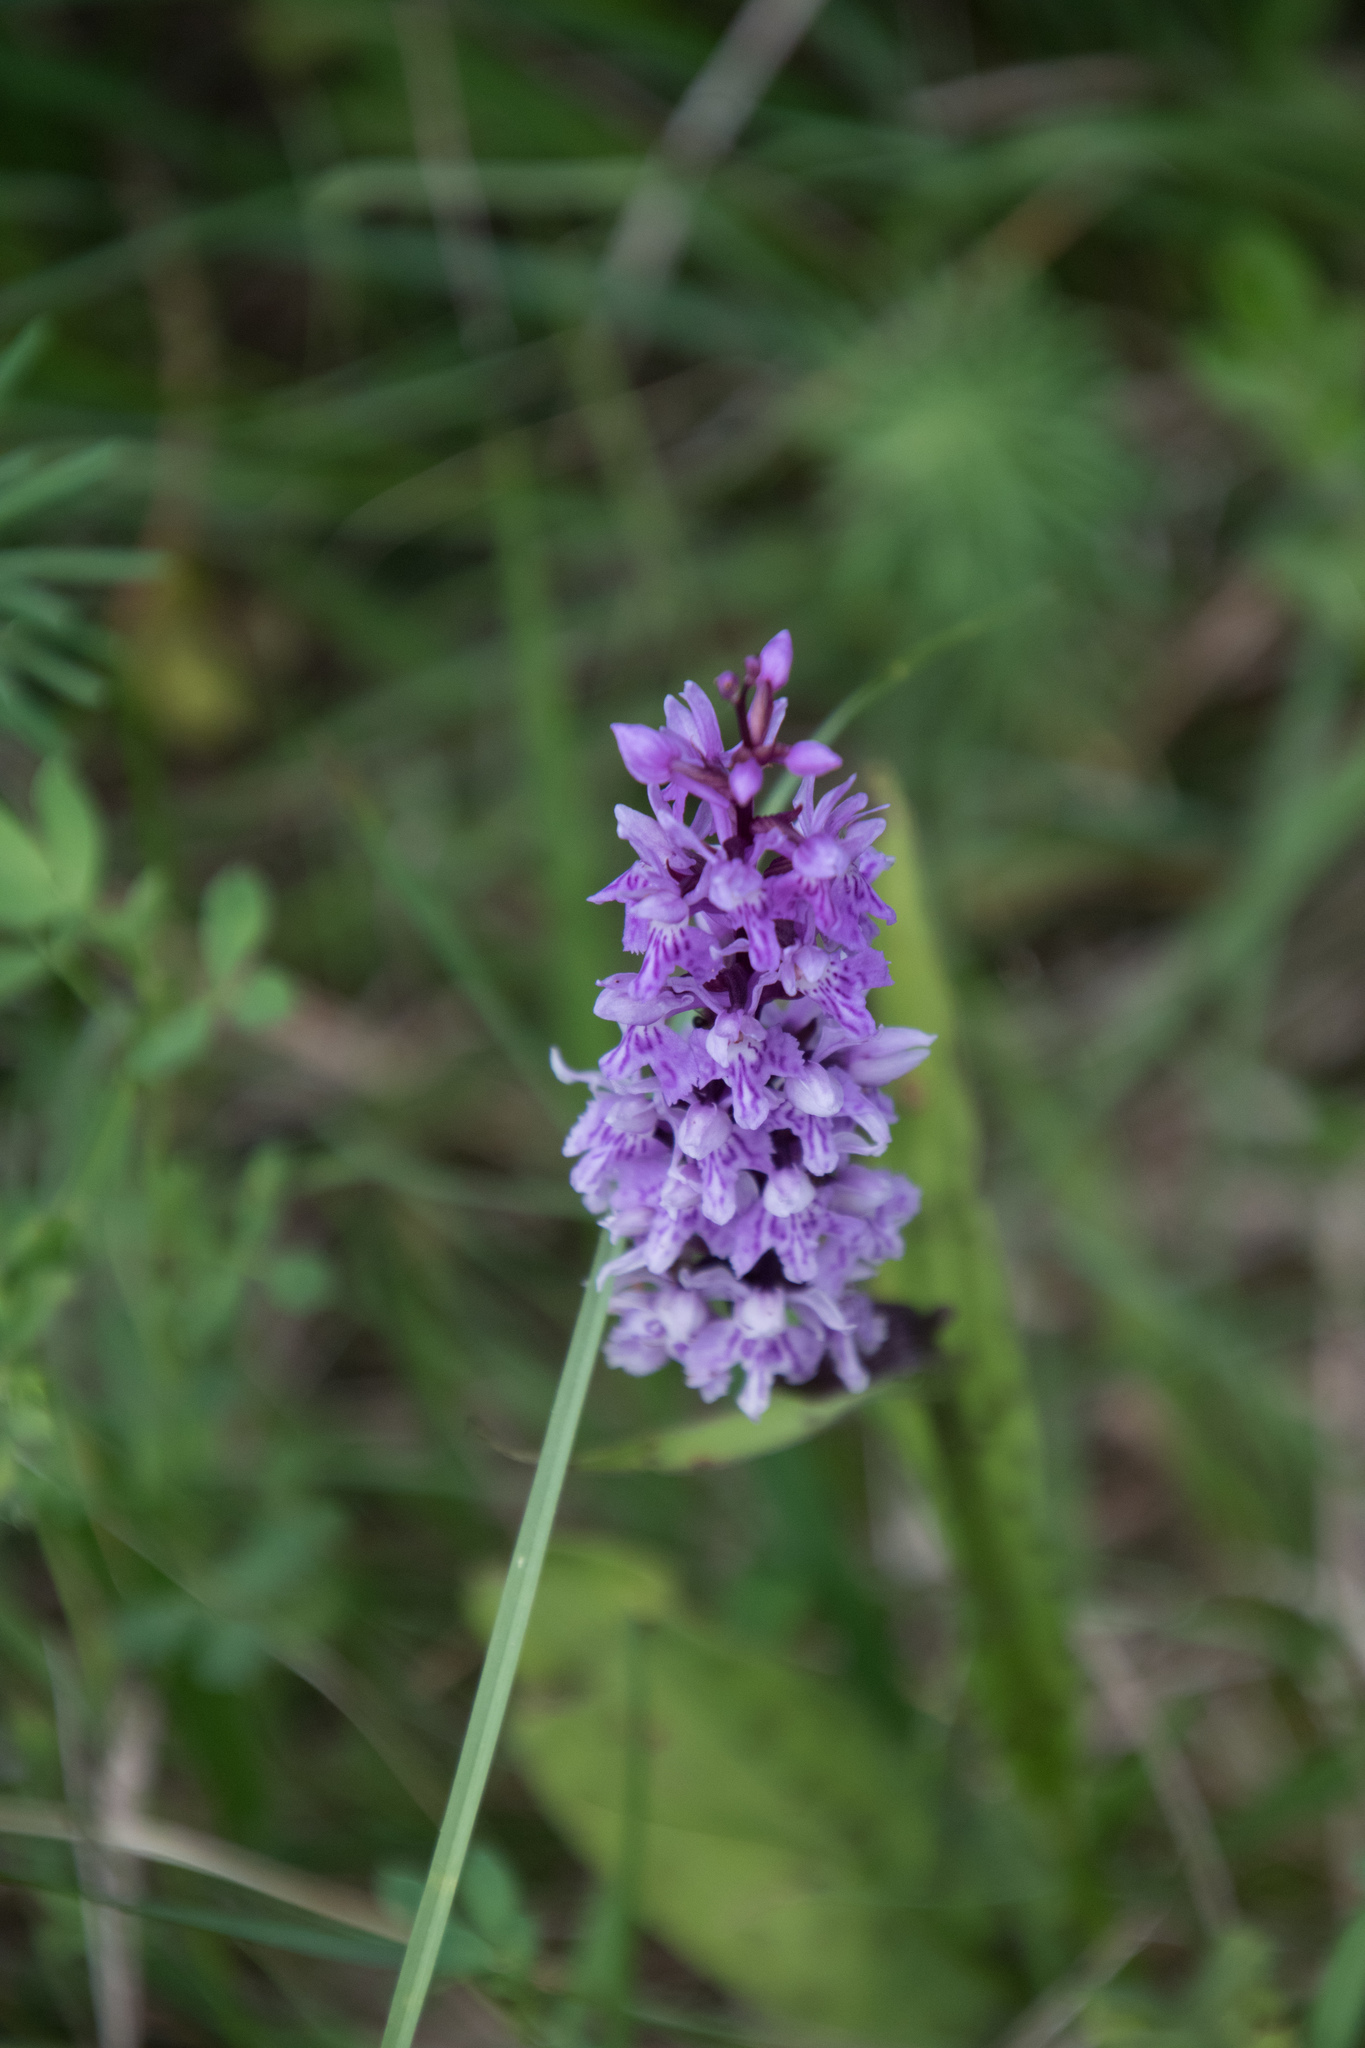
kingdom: Plantae
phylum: Tracheophyta
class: Liliopsida
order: Asparagales
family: Orchidaceae
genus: Dactylorhiza
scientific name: Dactylorhiza maculata
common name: Heath spotted-orchid
